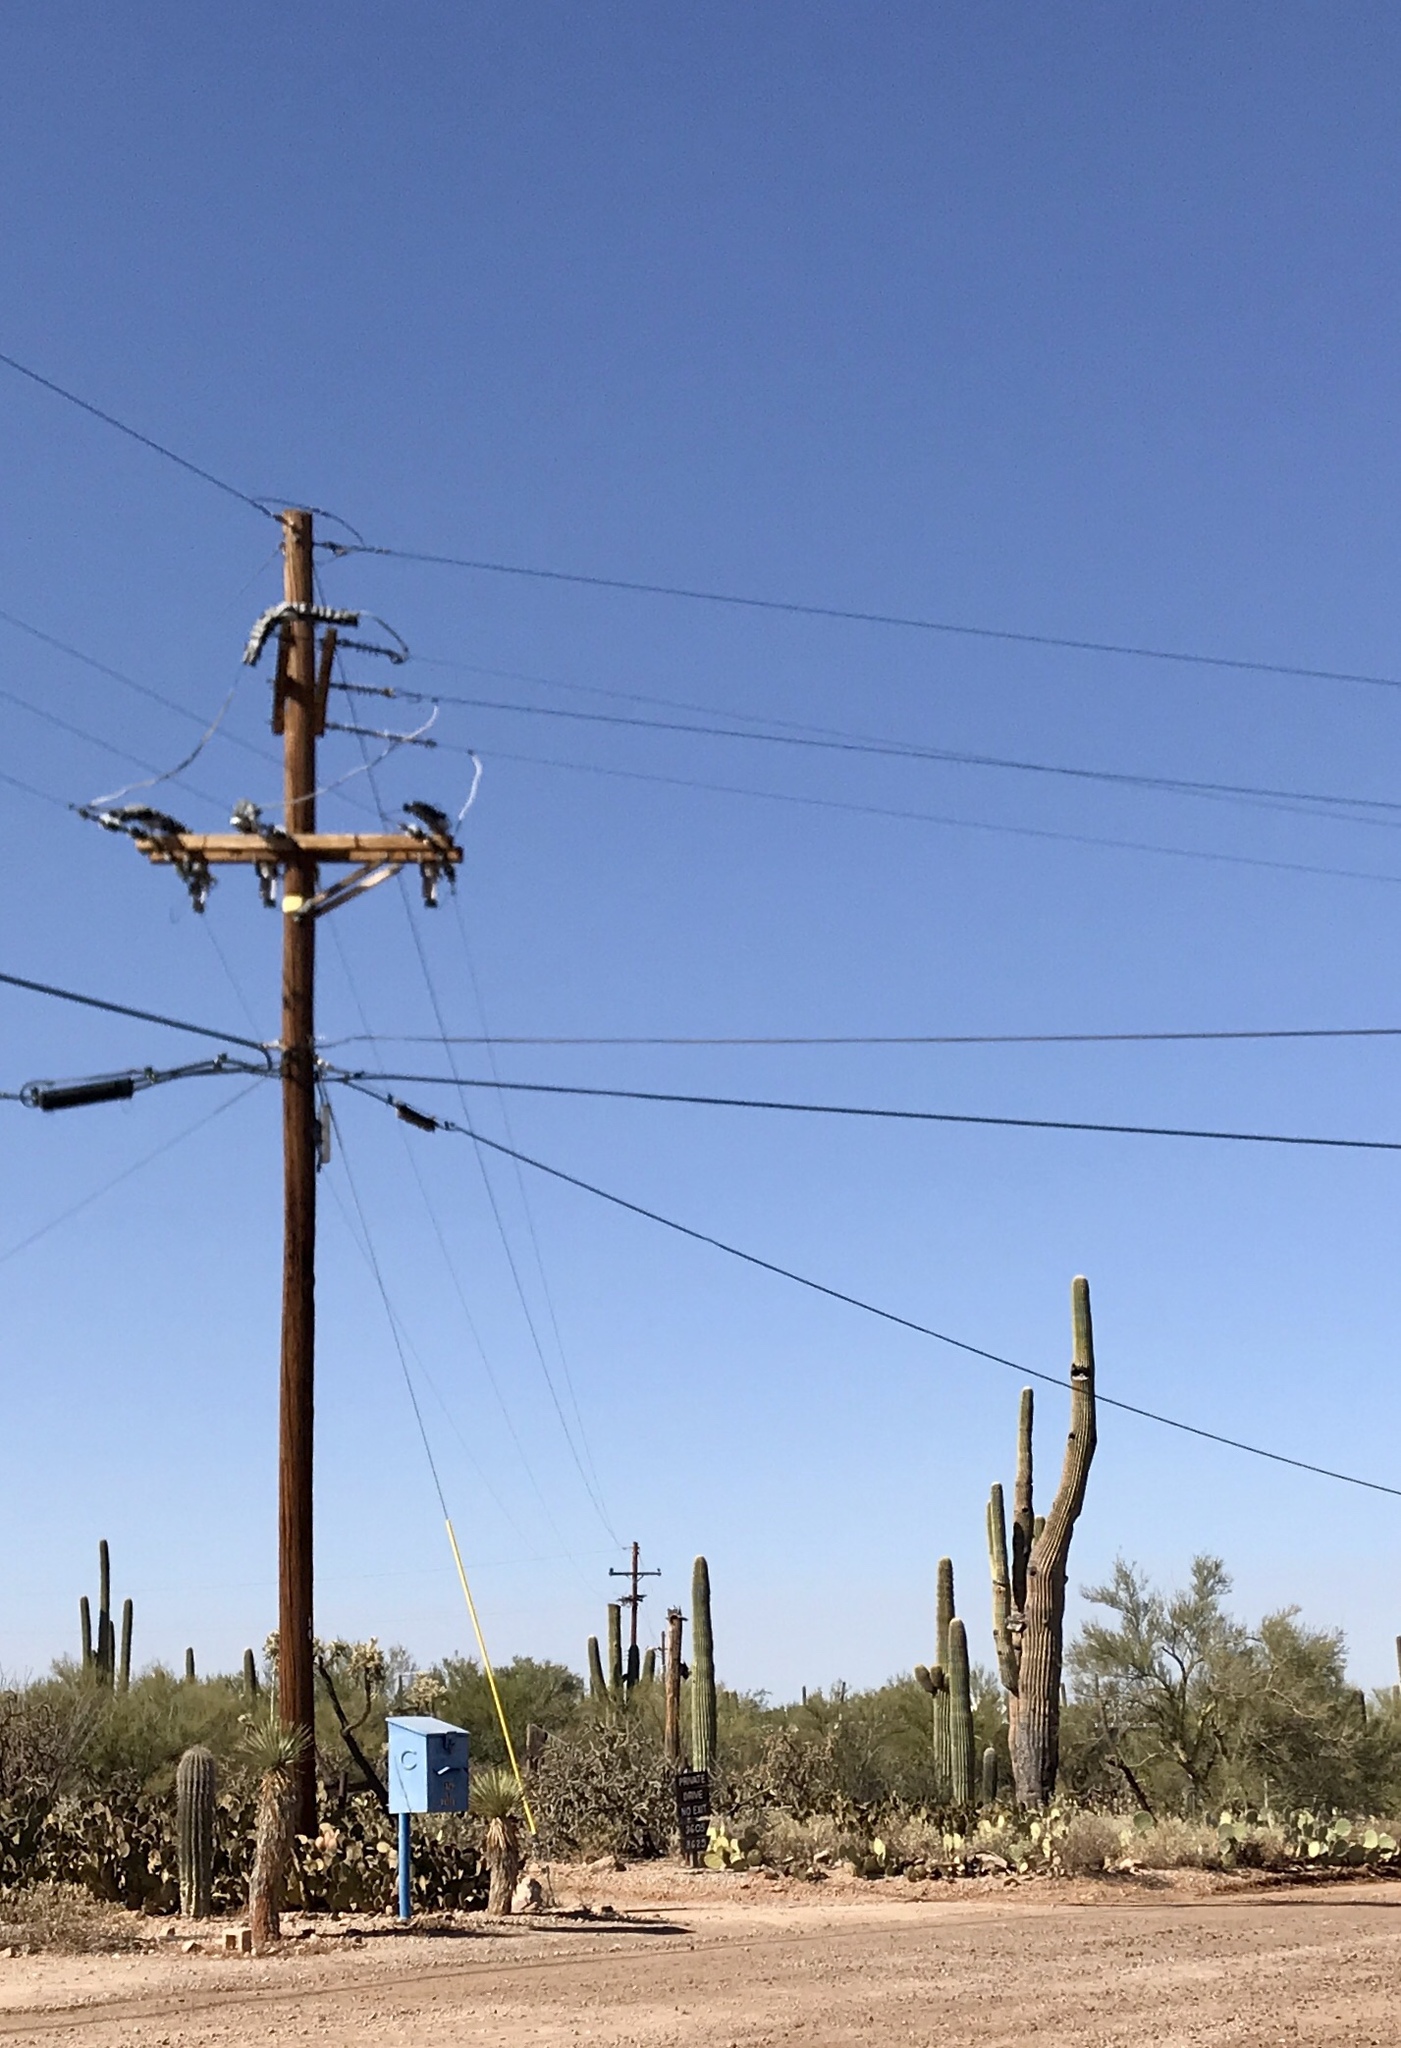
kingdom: Plantae
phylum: Tracheophyta
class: Magnoliopsida
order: Caryophyllales
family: Cactaceae
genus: Carnegiea
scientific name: Carnegiea gigantea
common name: Saguaro
